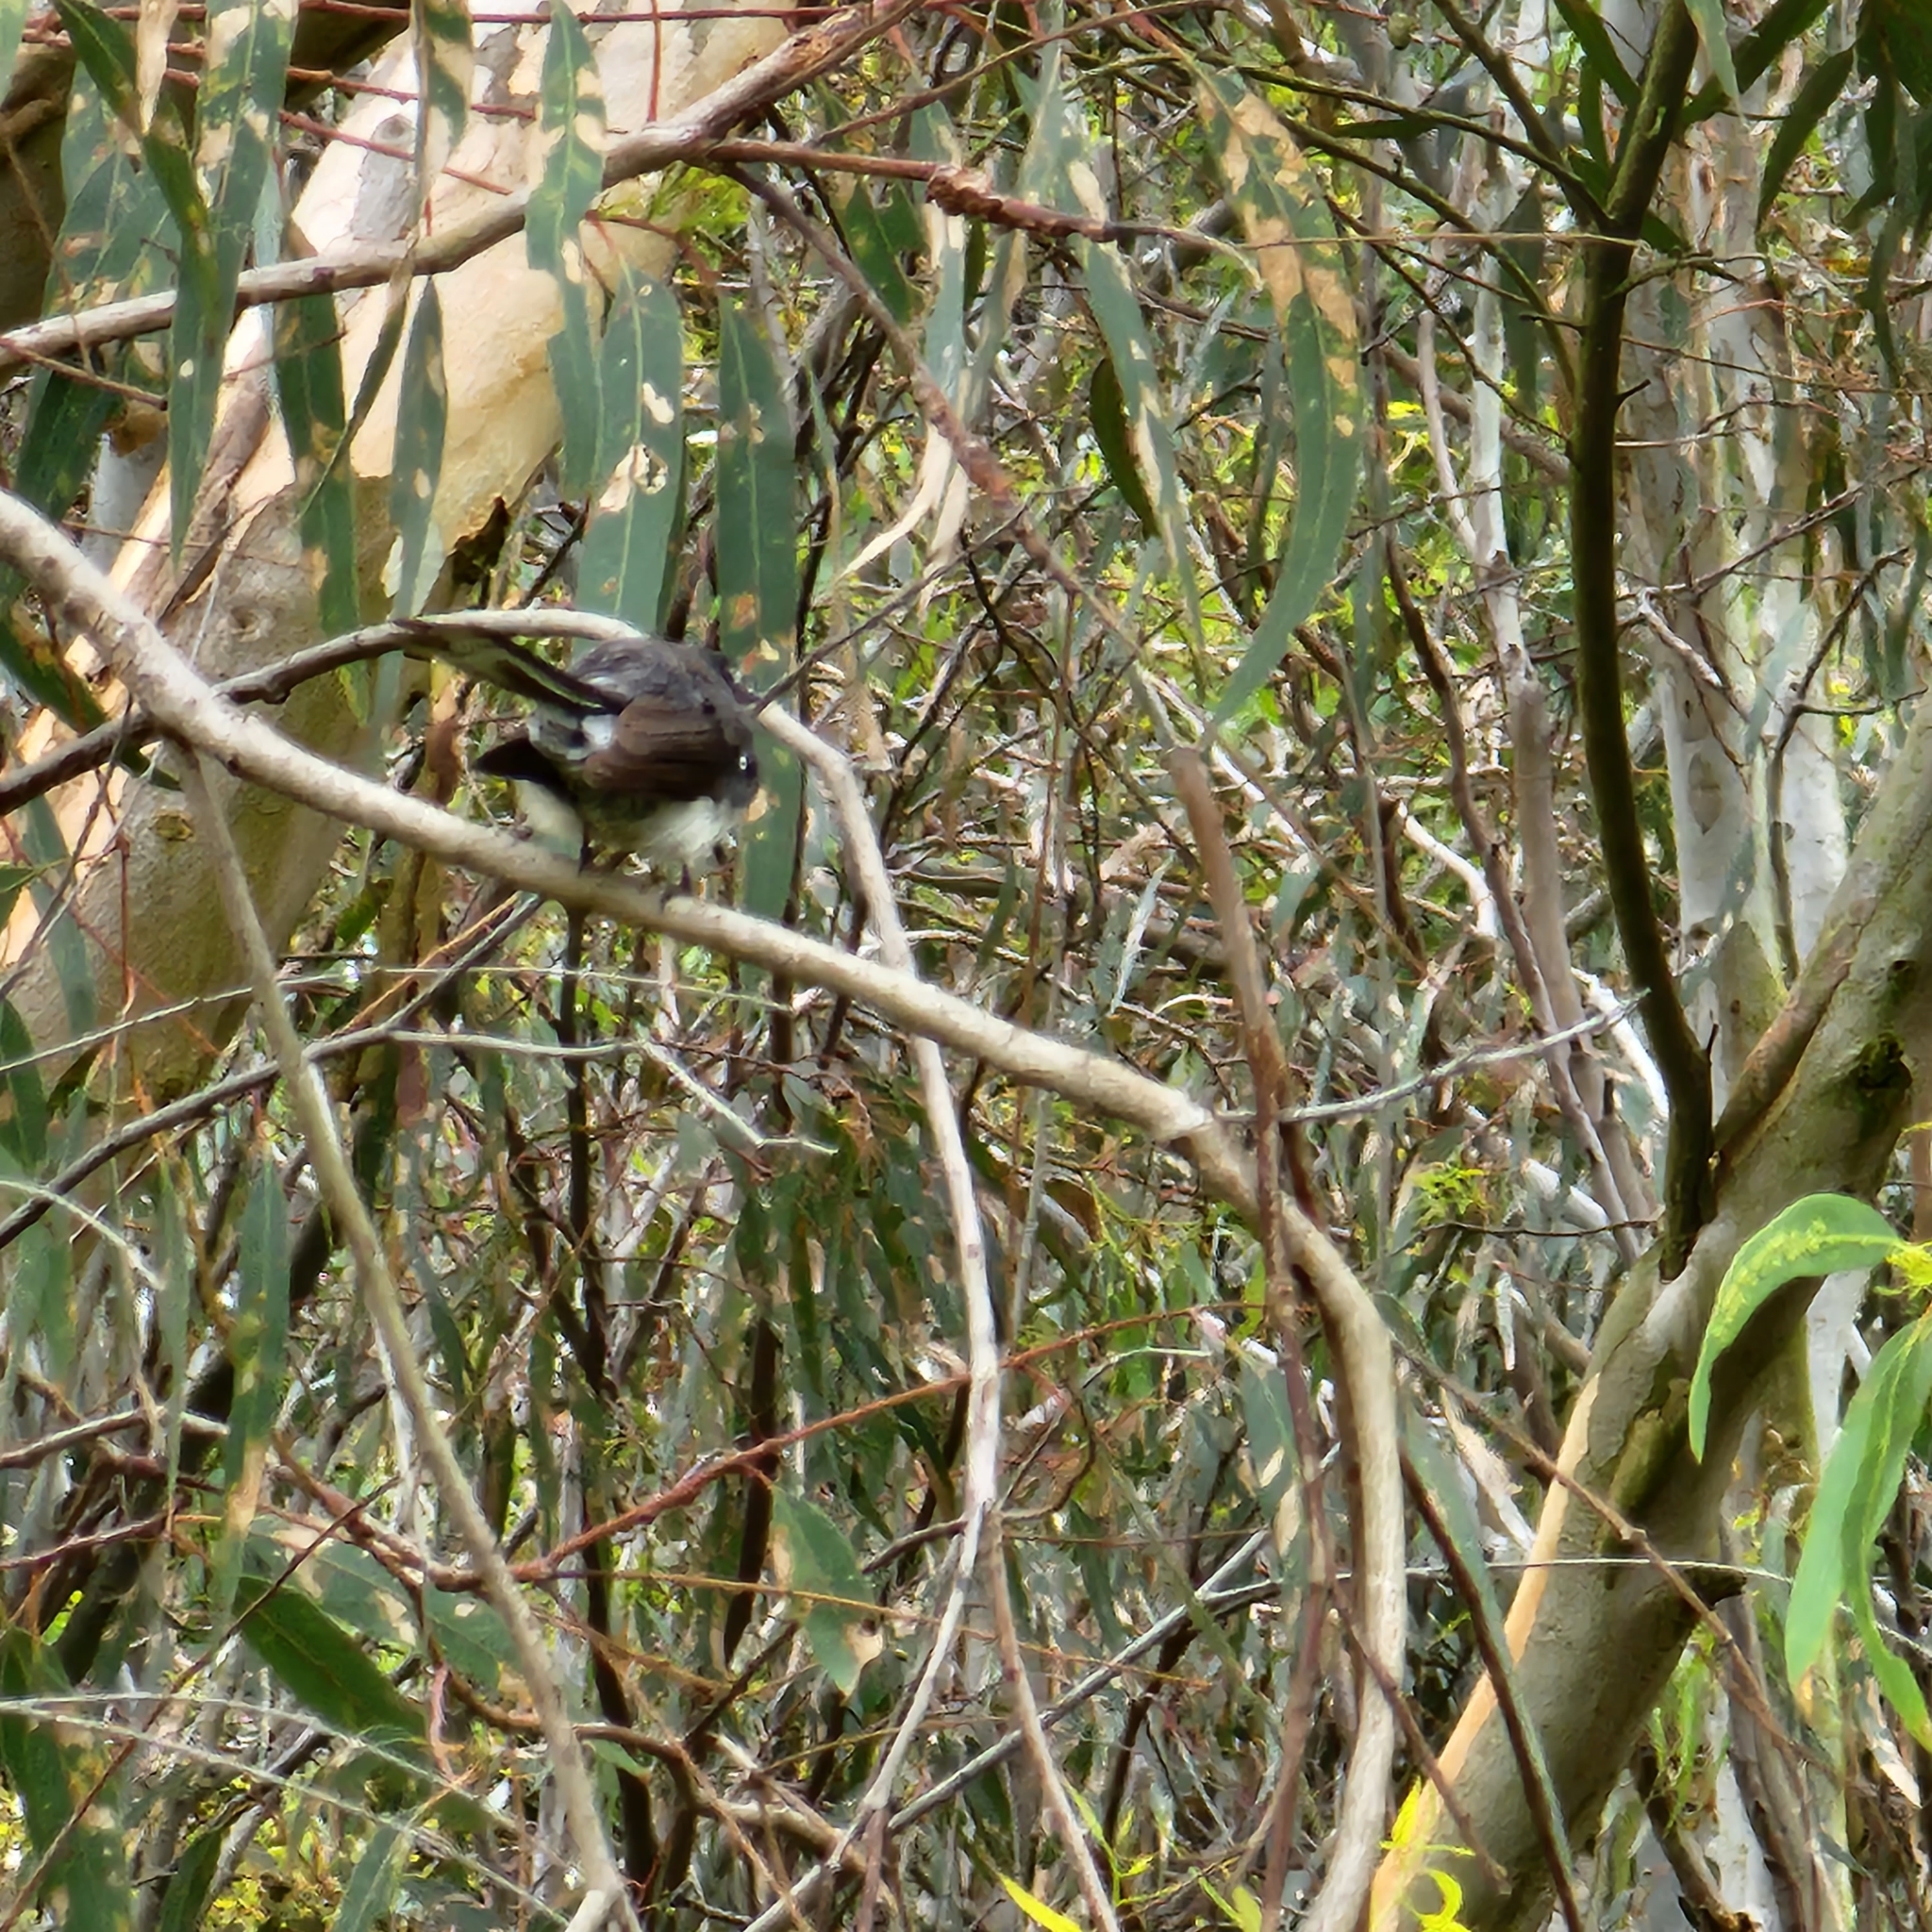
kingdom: Animalia
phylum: Chordata
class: Aves
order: Passeriformes
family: Rhipiduridae
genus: Rhipidura
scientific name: Rhipidura albiscapa
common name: Grey fantail
